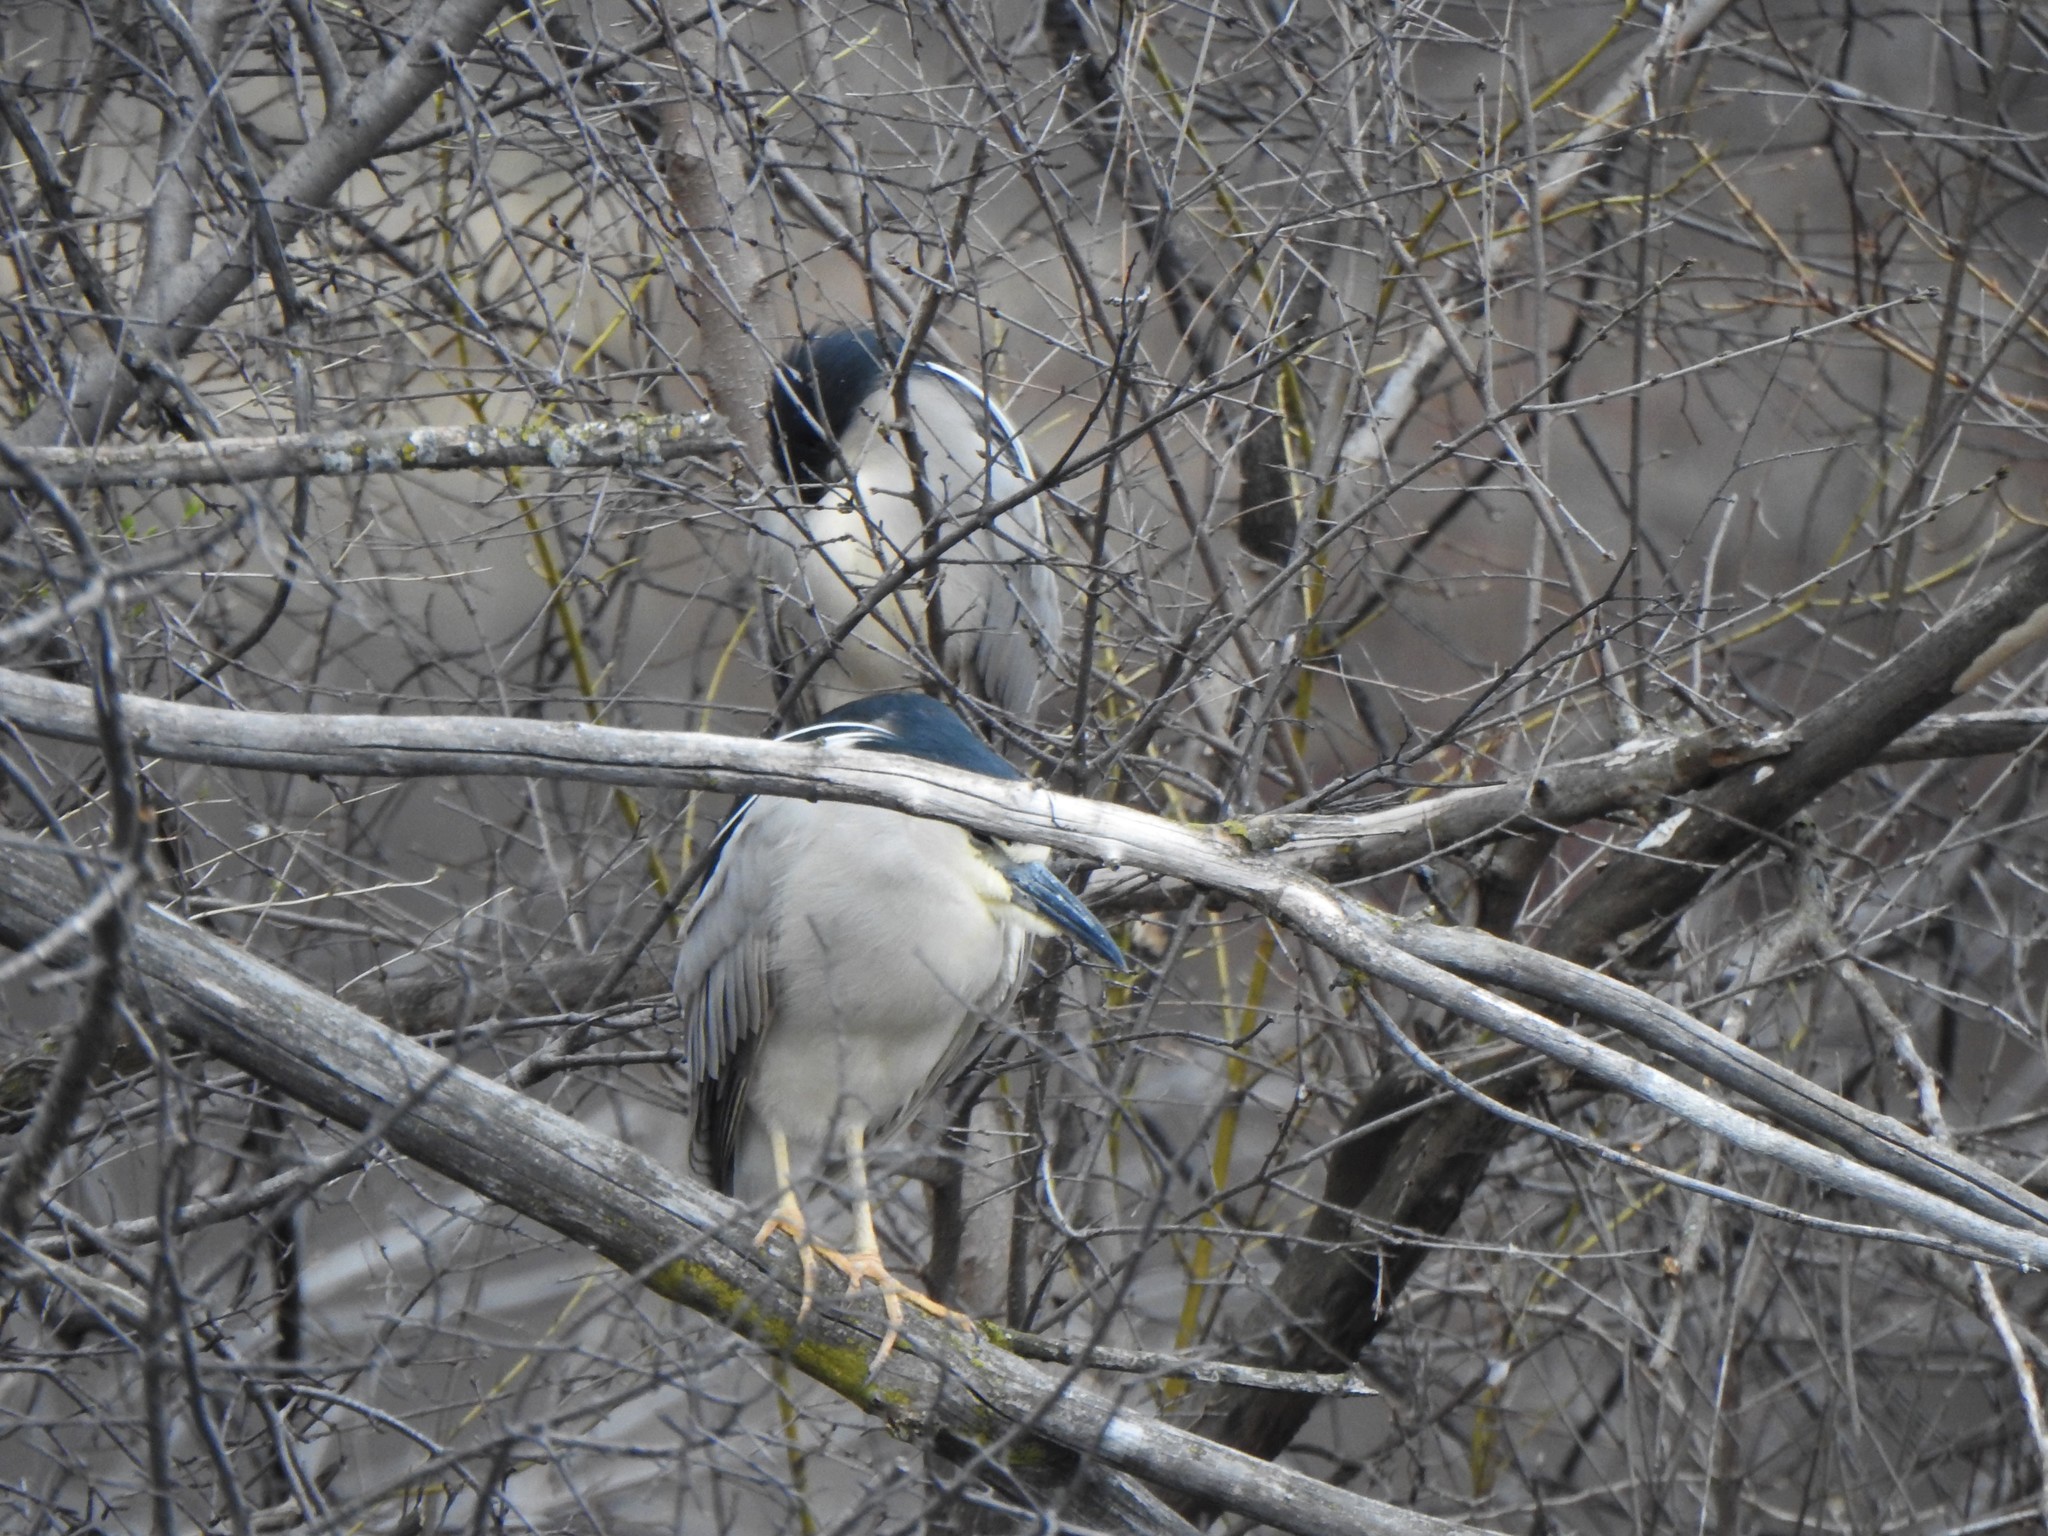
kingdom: Animalia
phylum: Chordata
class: Aves
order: Pelecaniformes
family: Ardeidae
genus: Nycticorax
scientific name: Nycticorax nycticorax
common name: Black-crowned night heron
